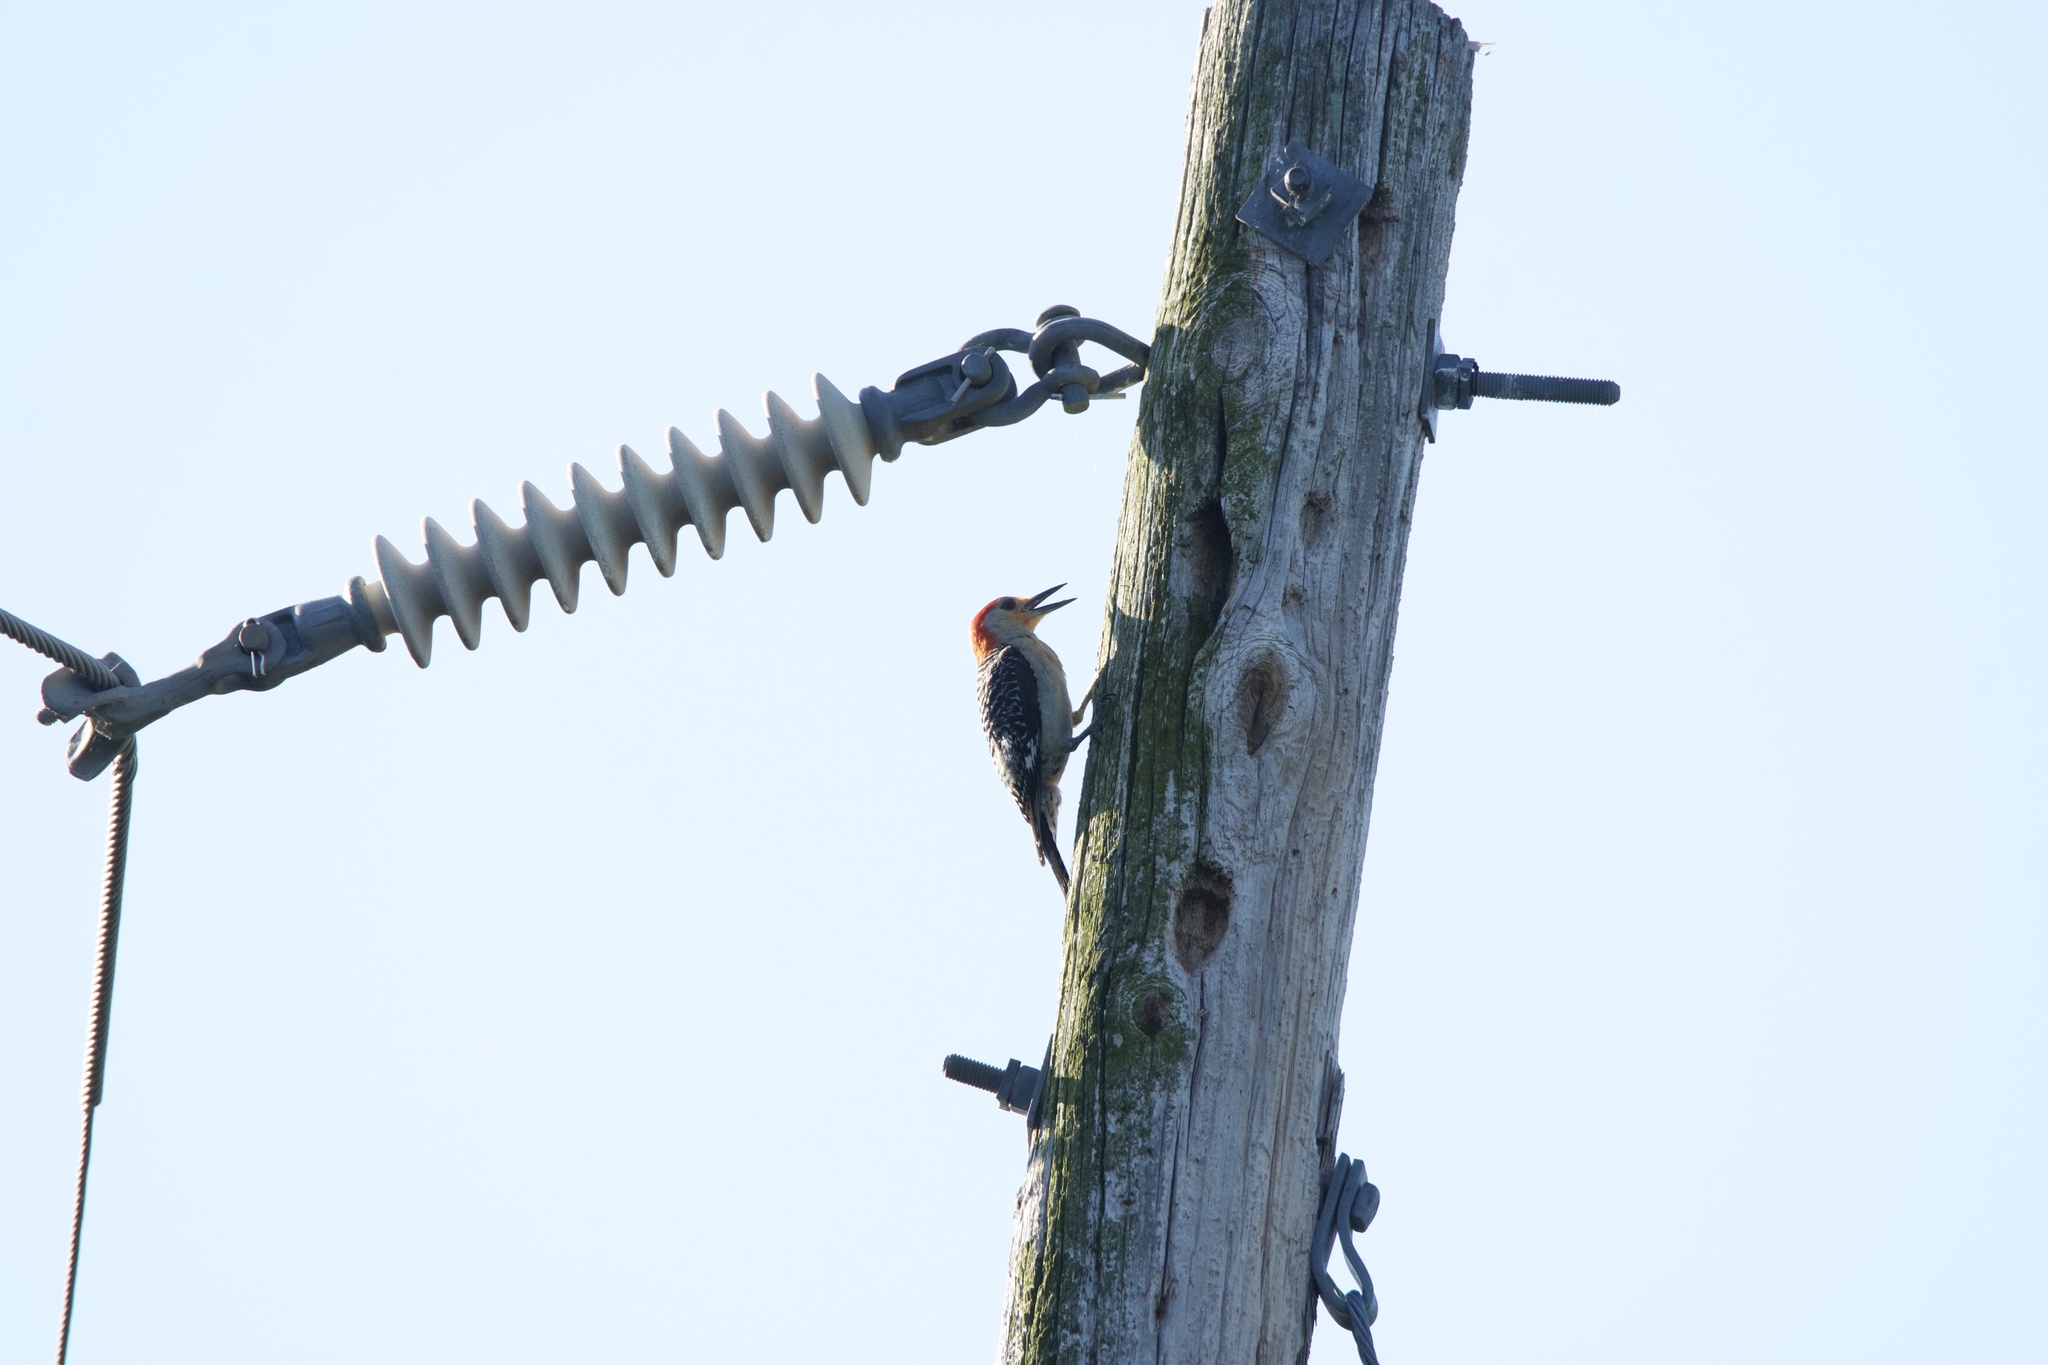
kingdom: Animalia
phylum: Chordata
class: Aves
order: Piciformes
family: Picidae
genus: Melanerpes
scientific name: Melanerpes carolinus
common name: Red-bellied woodpecker
